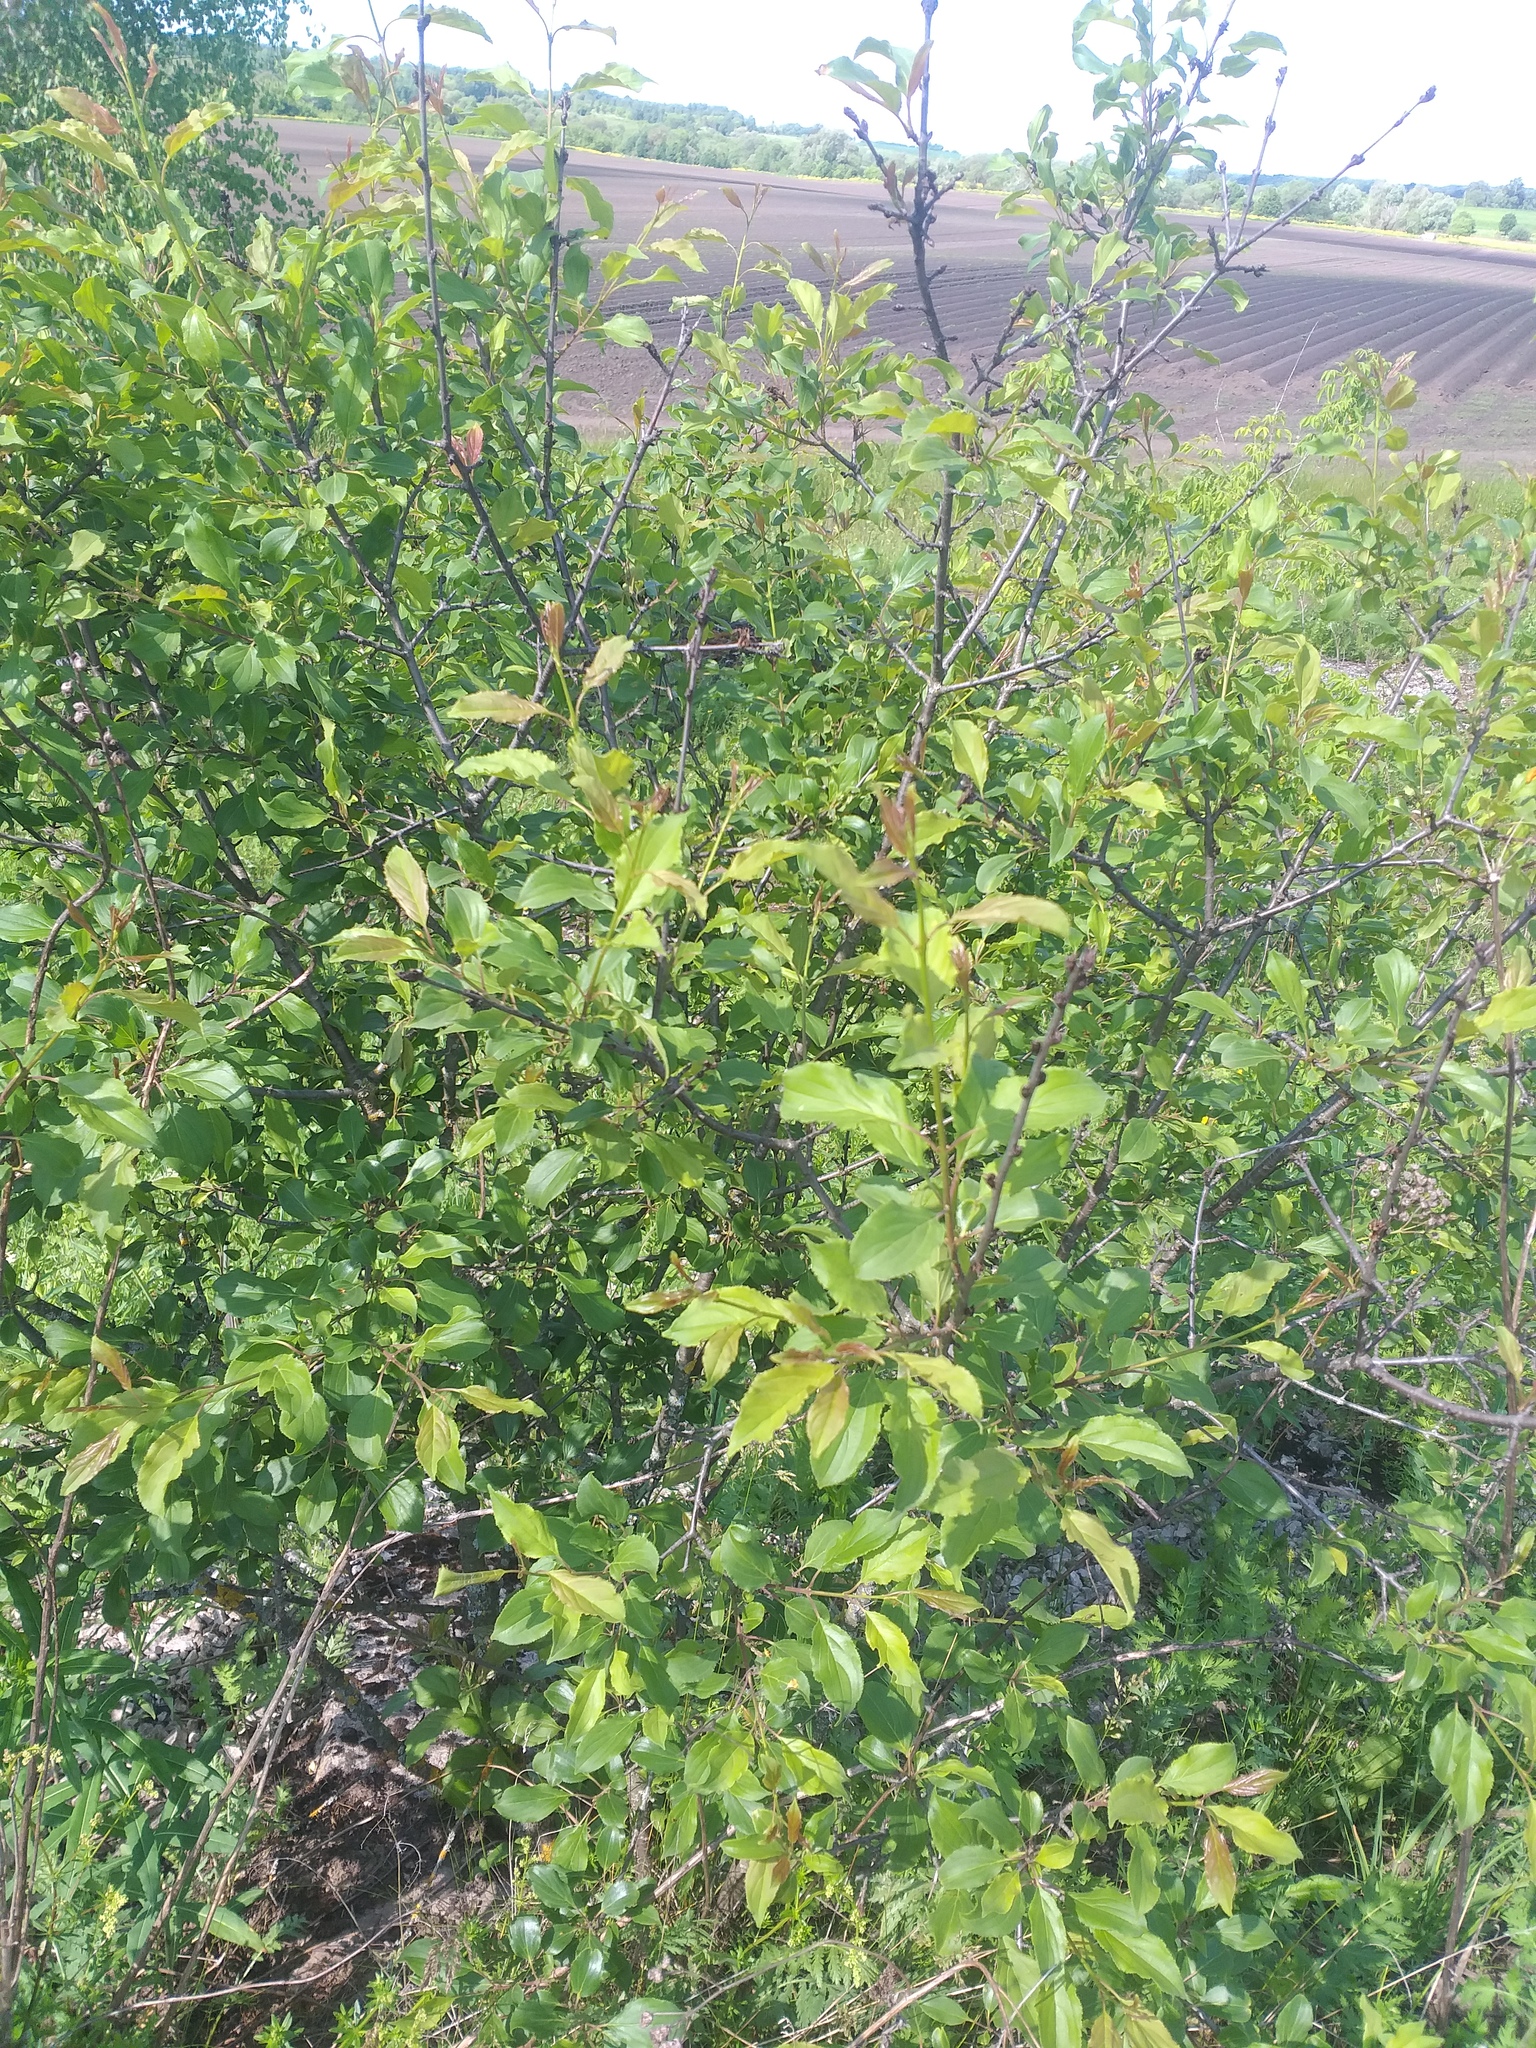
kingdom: Plantae
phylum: Tracheophyta
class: Magnoliopsida
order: Rosales
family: Rhamnaceae
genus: Rhamnus
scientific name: Rhamnus cathartica
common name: Common buckthorn
